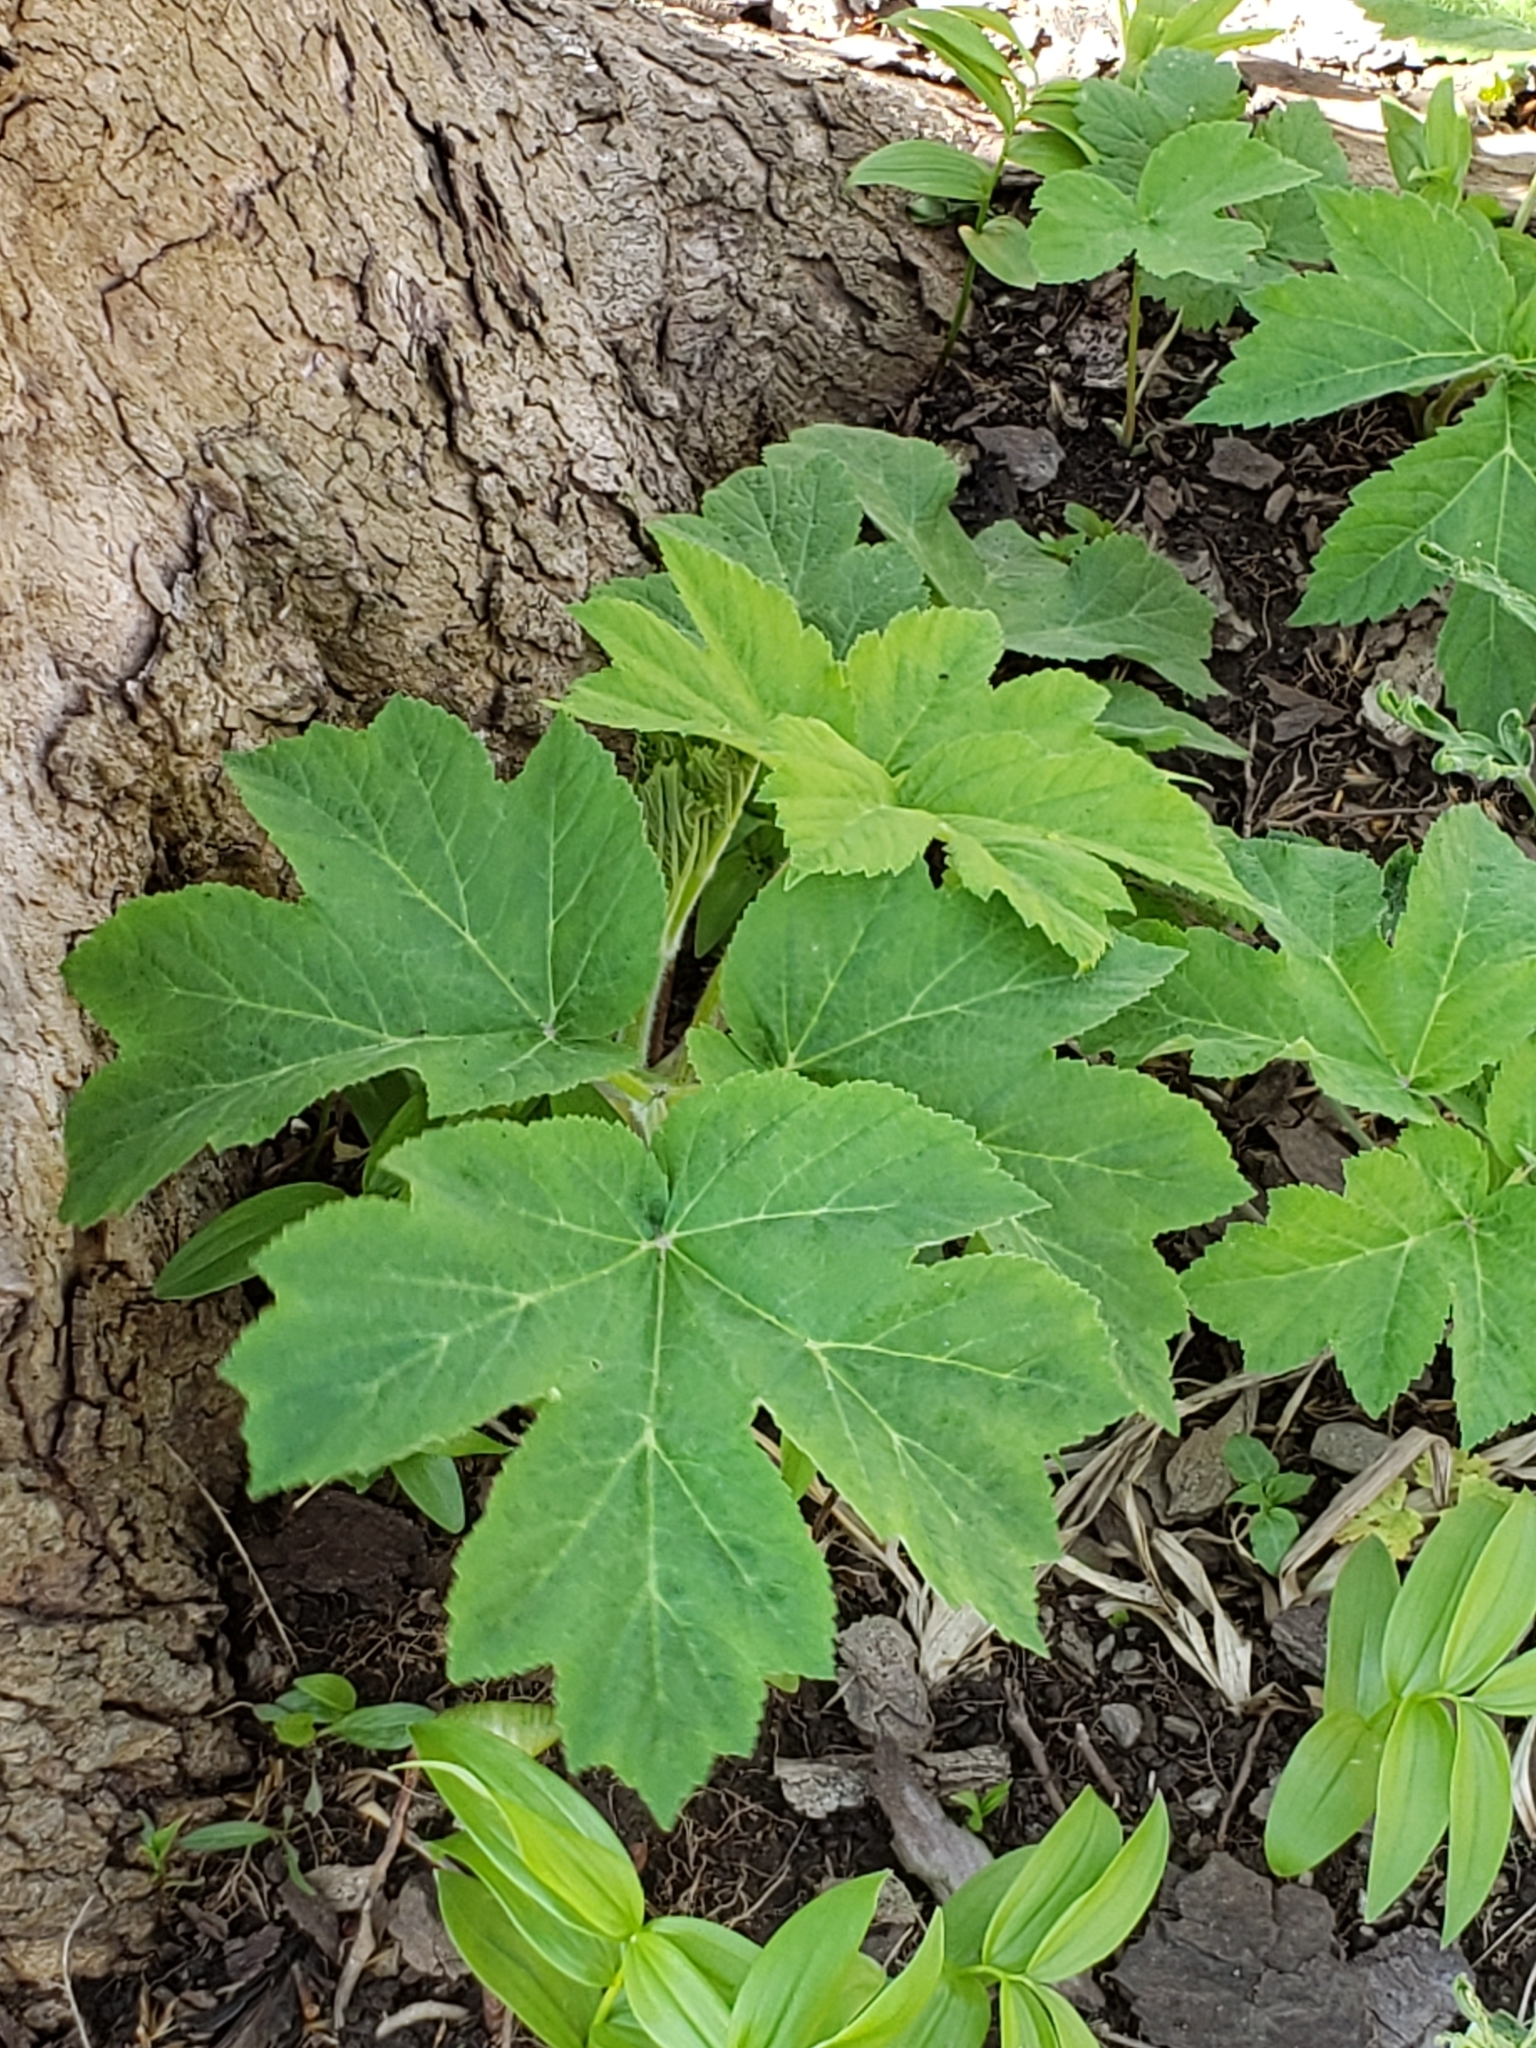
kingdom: Plantae
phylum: Tracheophyta
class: Magnoliopsida
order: Apiales
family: Apiaceae
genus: Heracleum
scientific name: Heracleum maximum
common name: American cow parsnip
